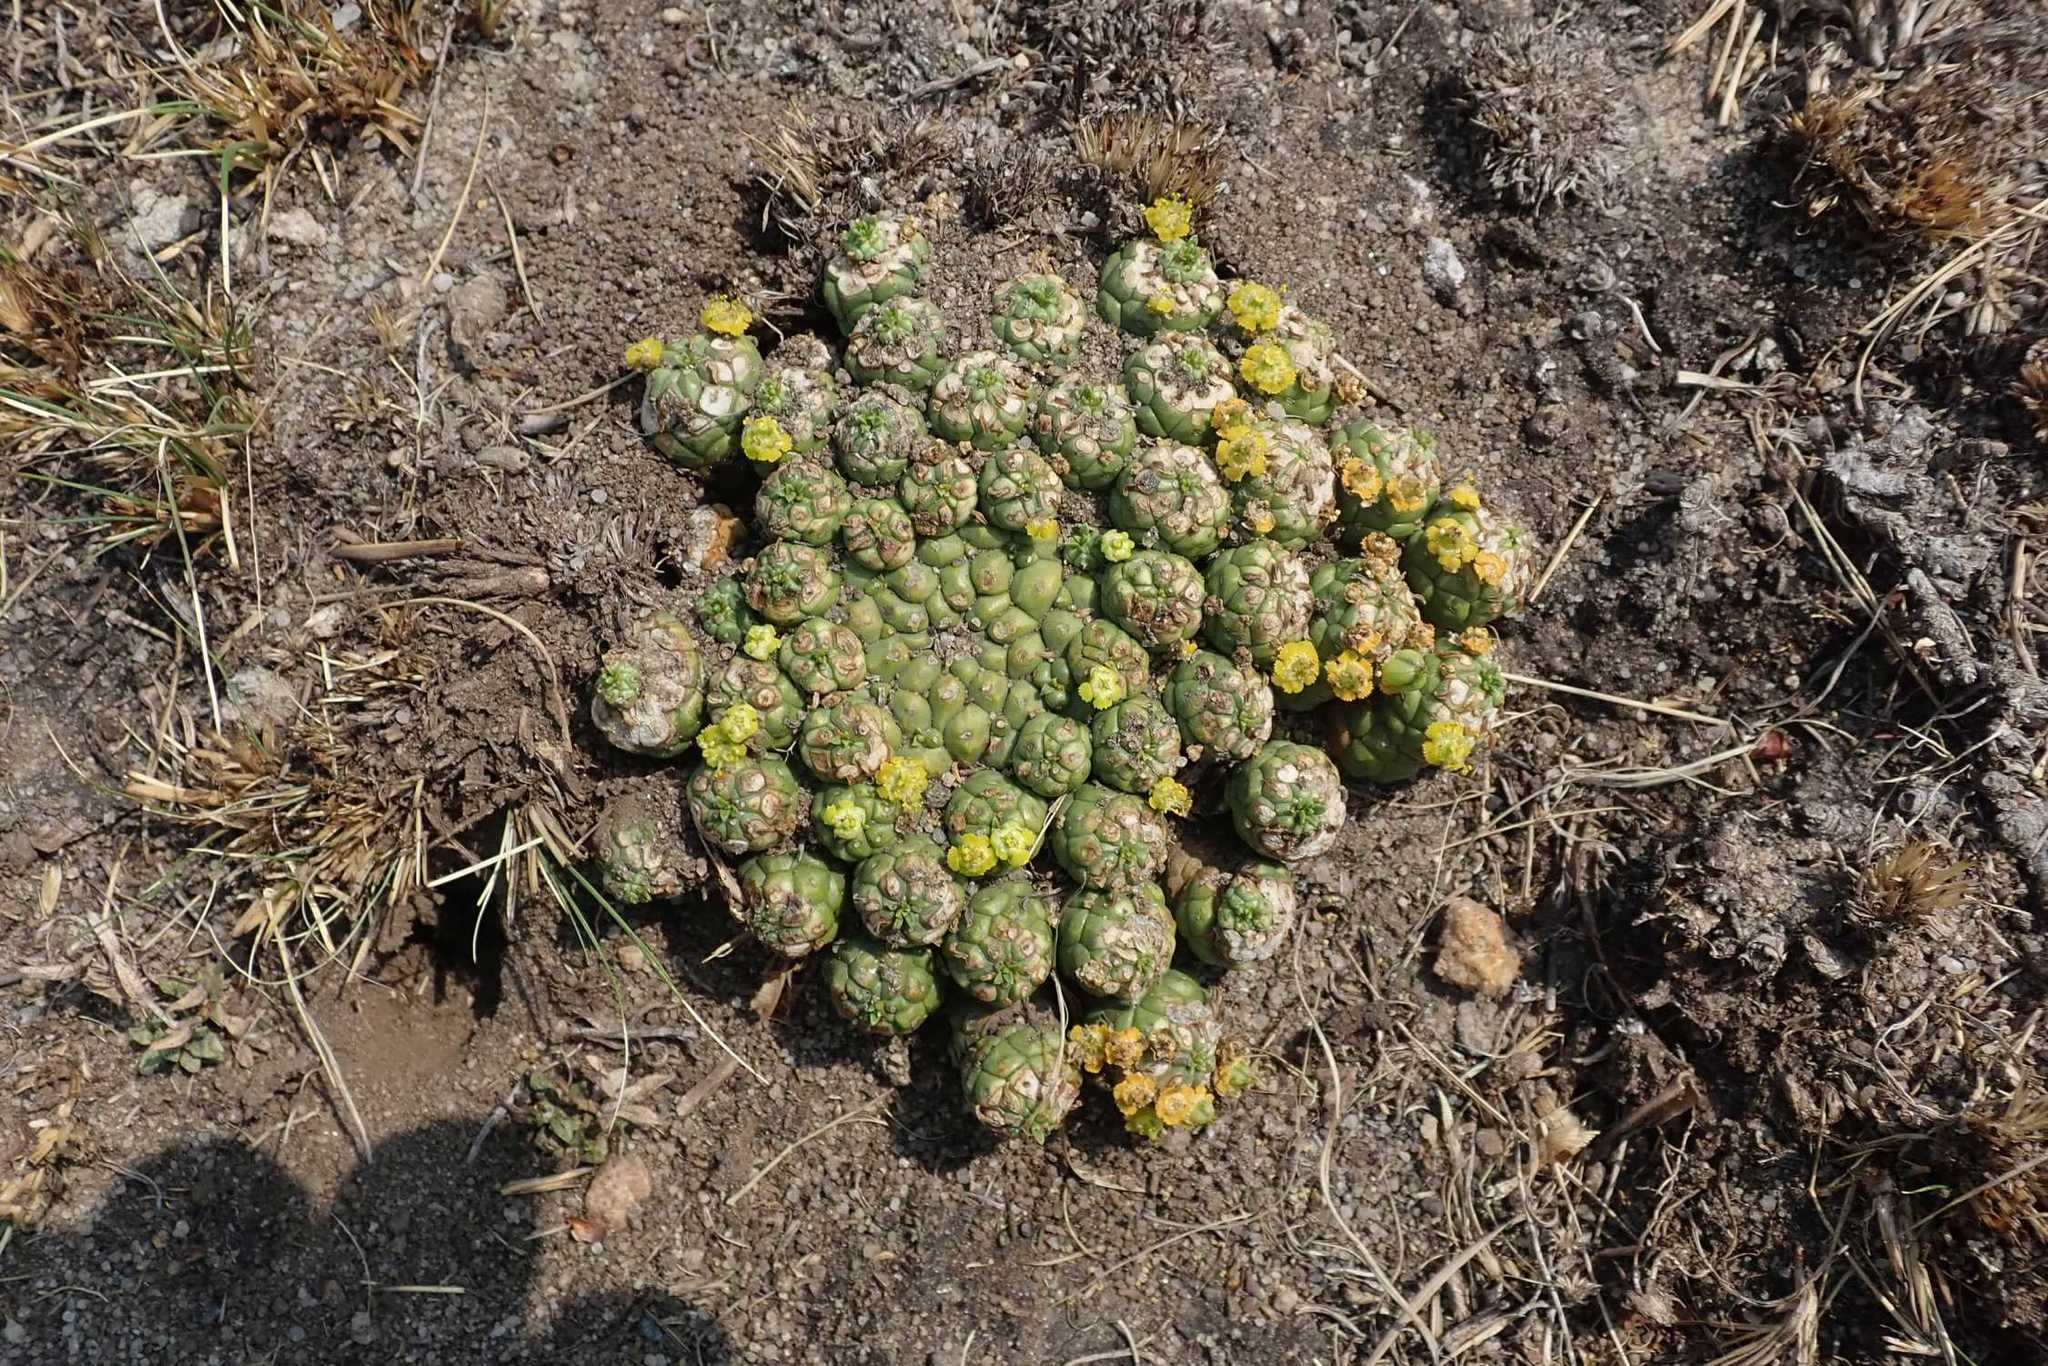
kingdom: Plantae
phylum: Tracheophyta
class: Magnoliopsida
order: Malpighiales
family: Euphorbiaceae
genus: Euphorbia
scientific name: Euphorbia clavarioides
